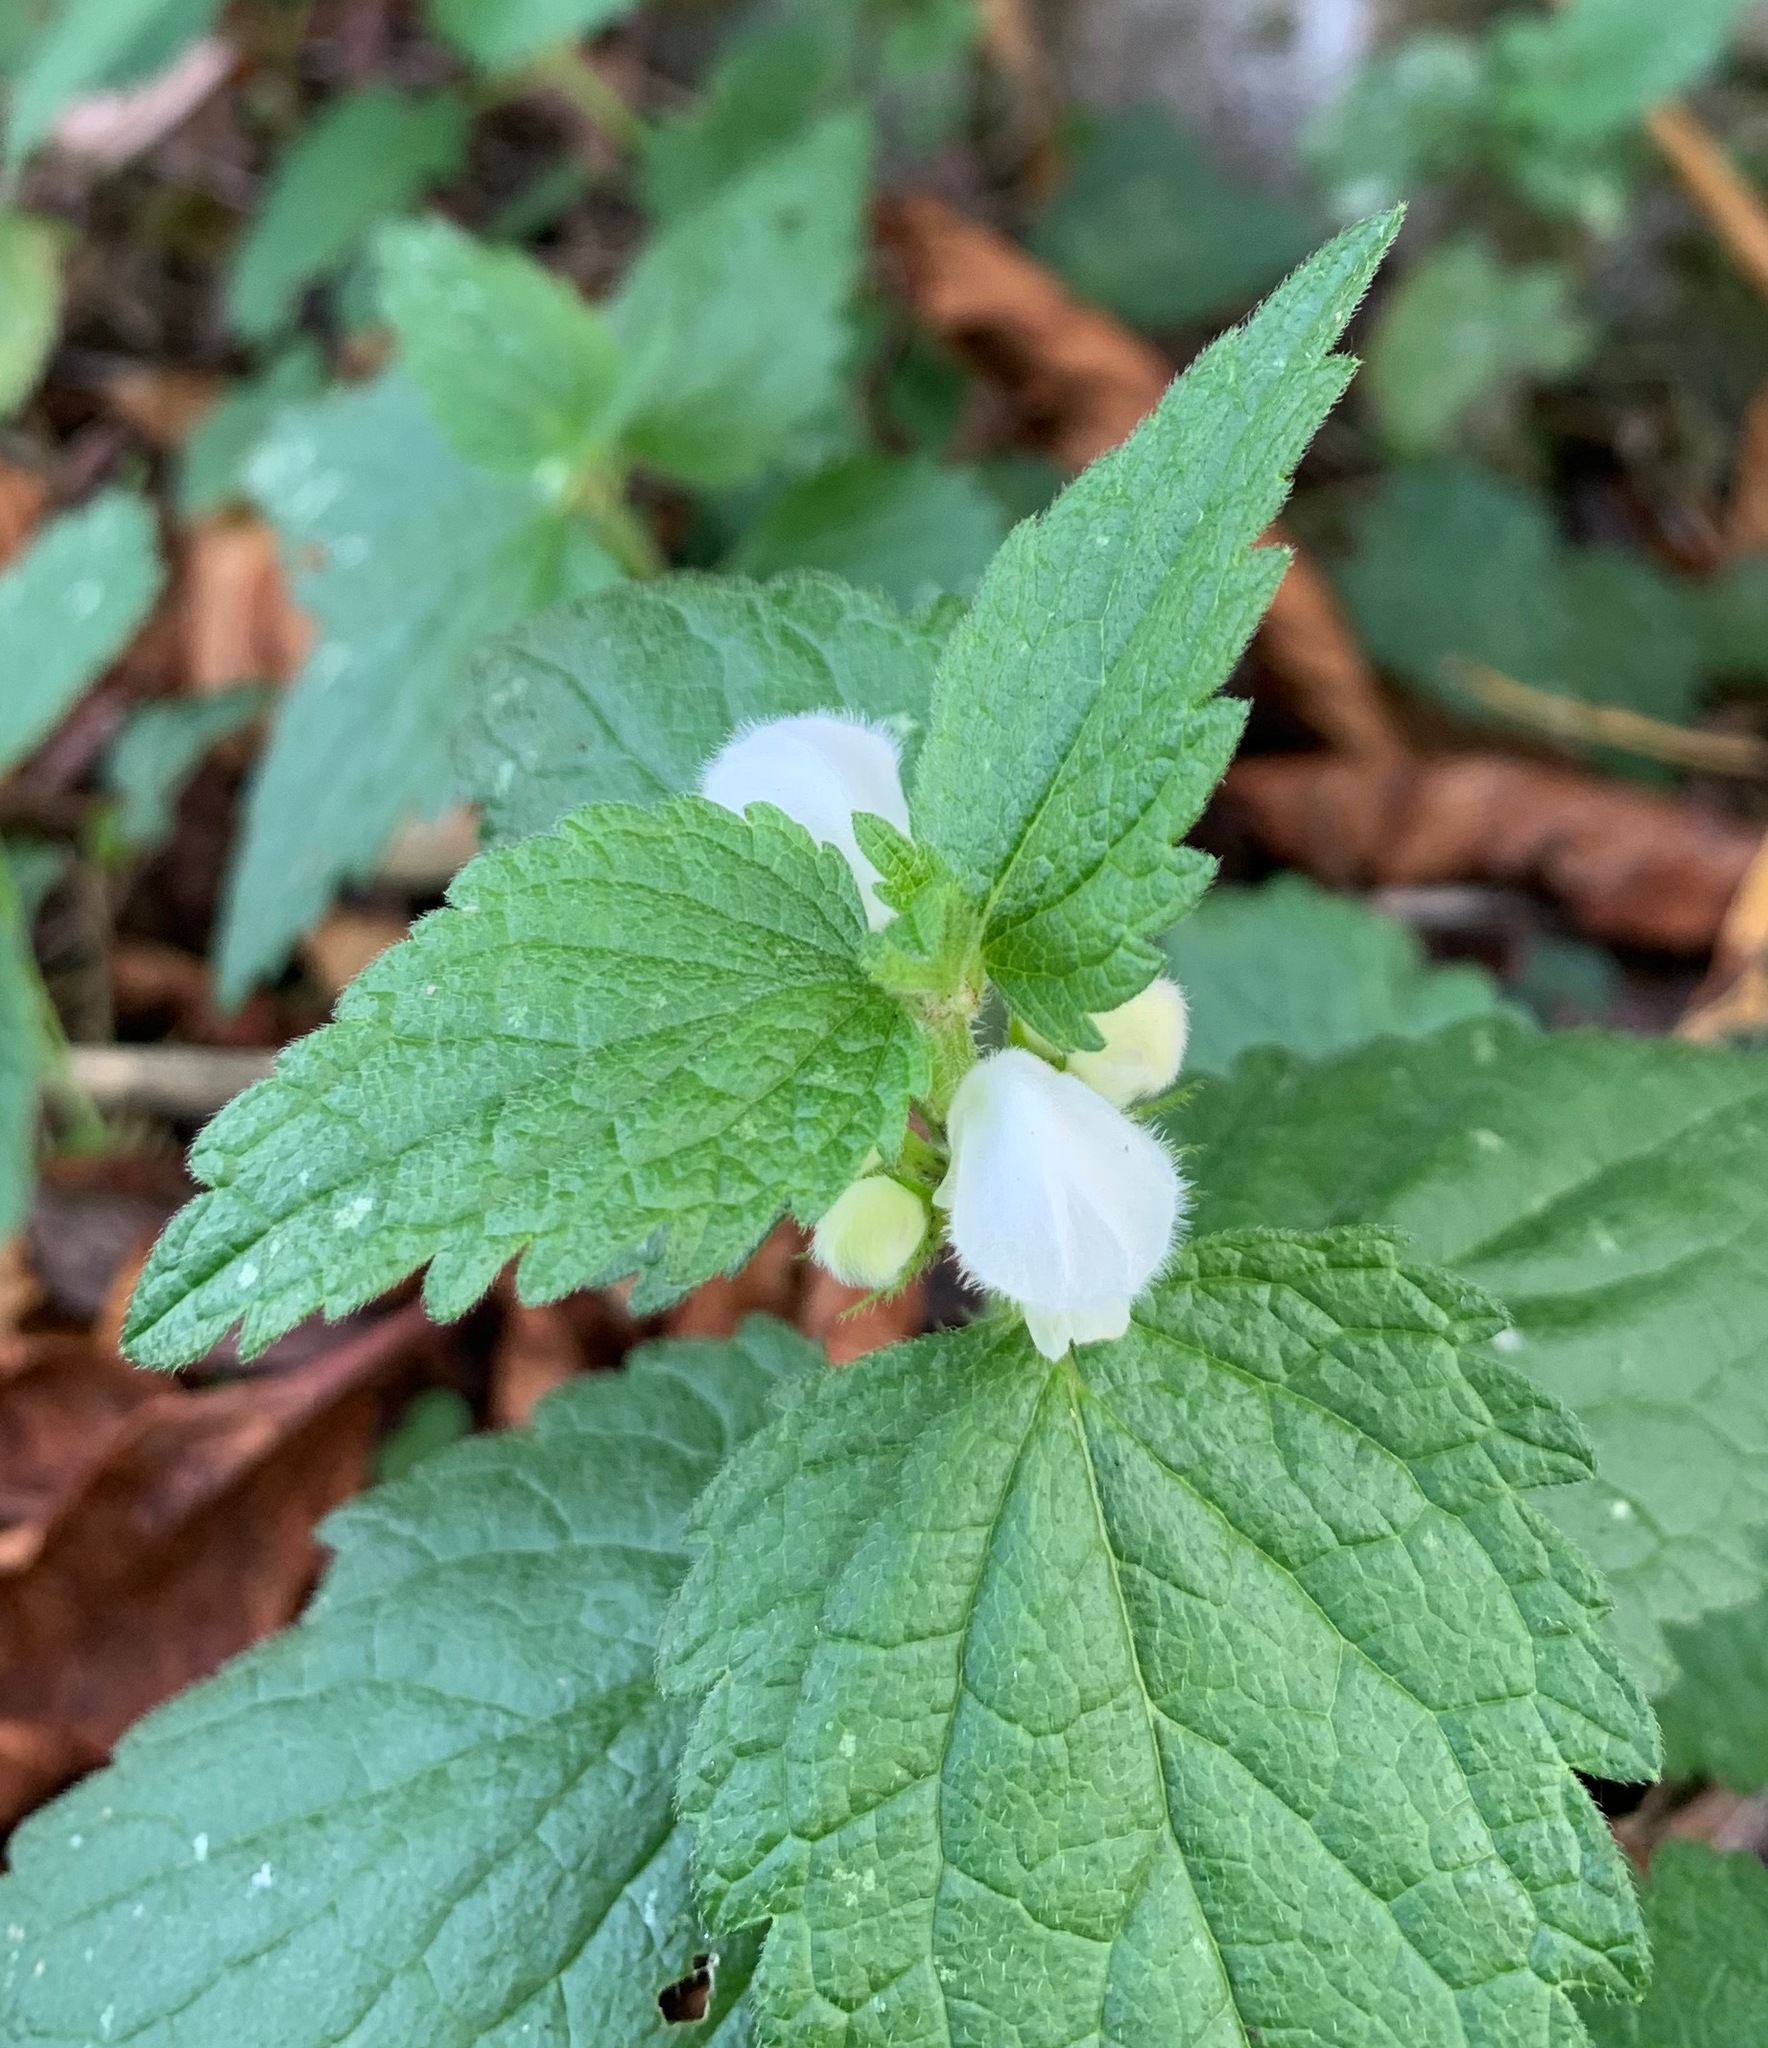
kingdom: Plantae
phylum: Tracheophyta
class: Magnoliopsida
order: Lamiales
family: Lamiaceae
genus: Lamium
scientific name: Lamium album
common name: White dead-nettle
